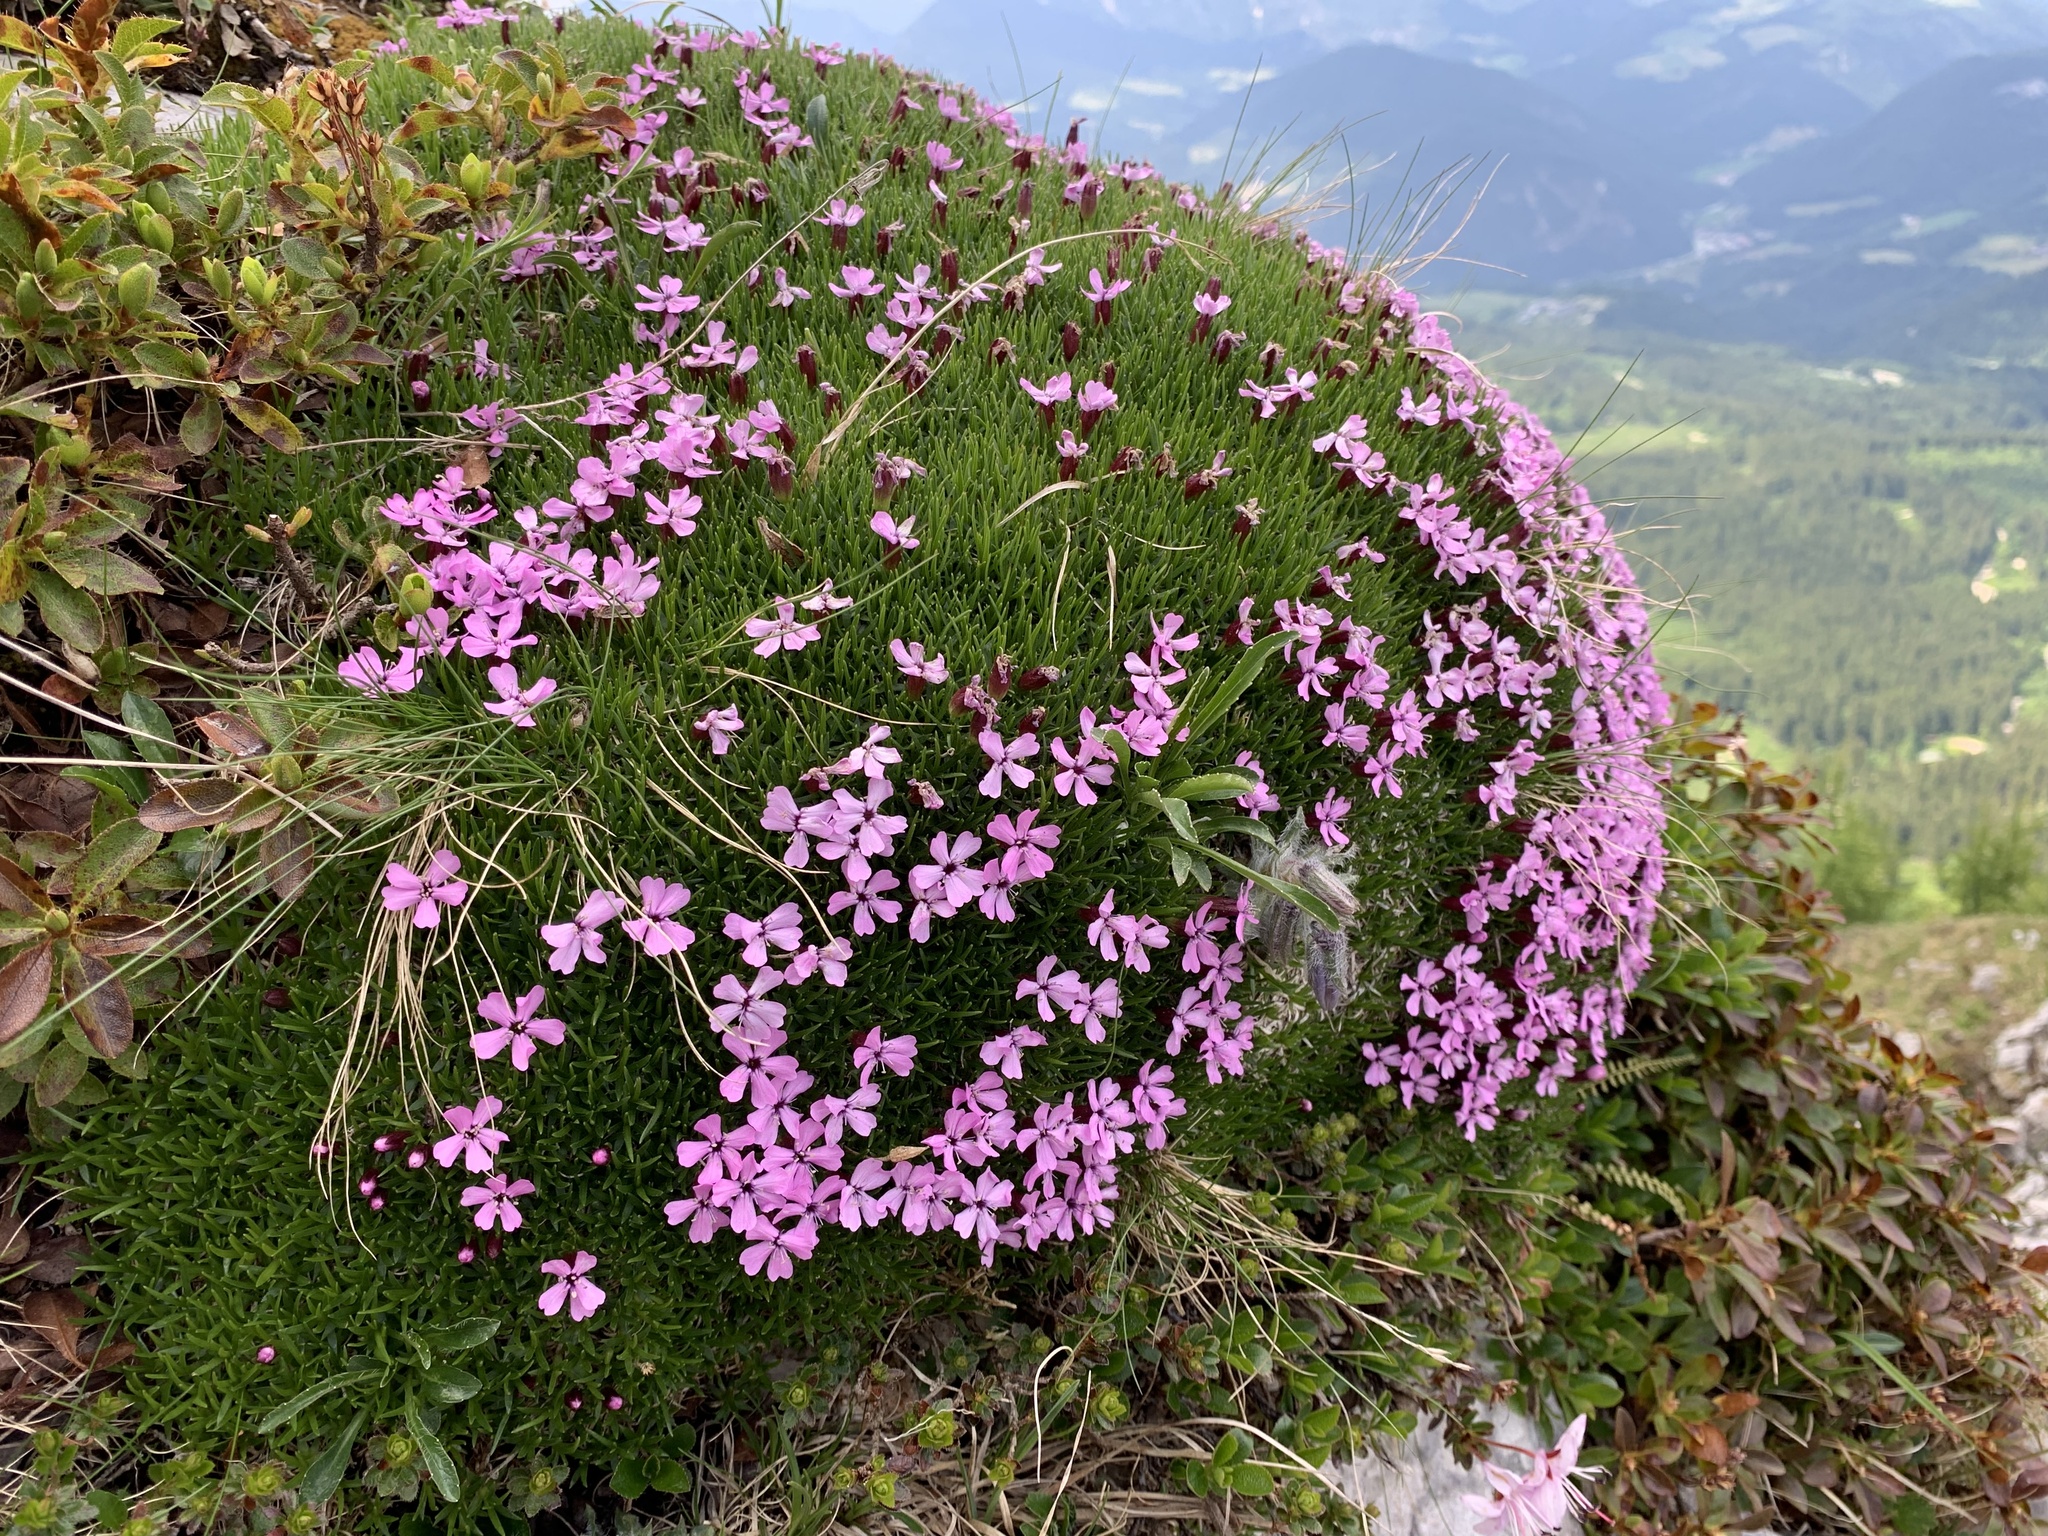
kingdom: Plantae
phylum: Tracheophyta
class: Magnoliopsida
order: Caryophyllales
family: Caryophyllaceae
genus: Silene
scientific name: Silene acaulis
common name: Moss campion
